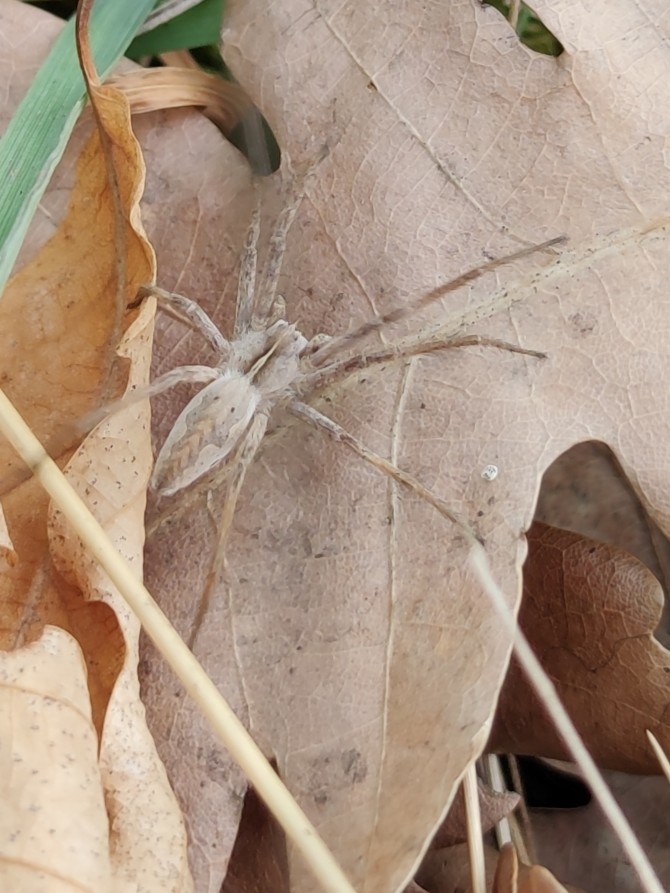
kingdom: Animalia
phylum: Arthropoda
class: Arachnida
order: Araneae
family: Pisauridae
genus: Pisaura
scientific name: Pisaura mirabilis
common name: Tent spider
